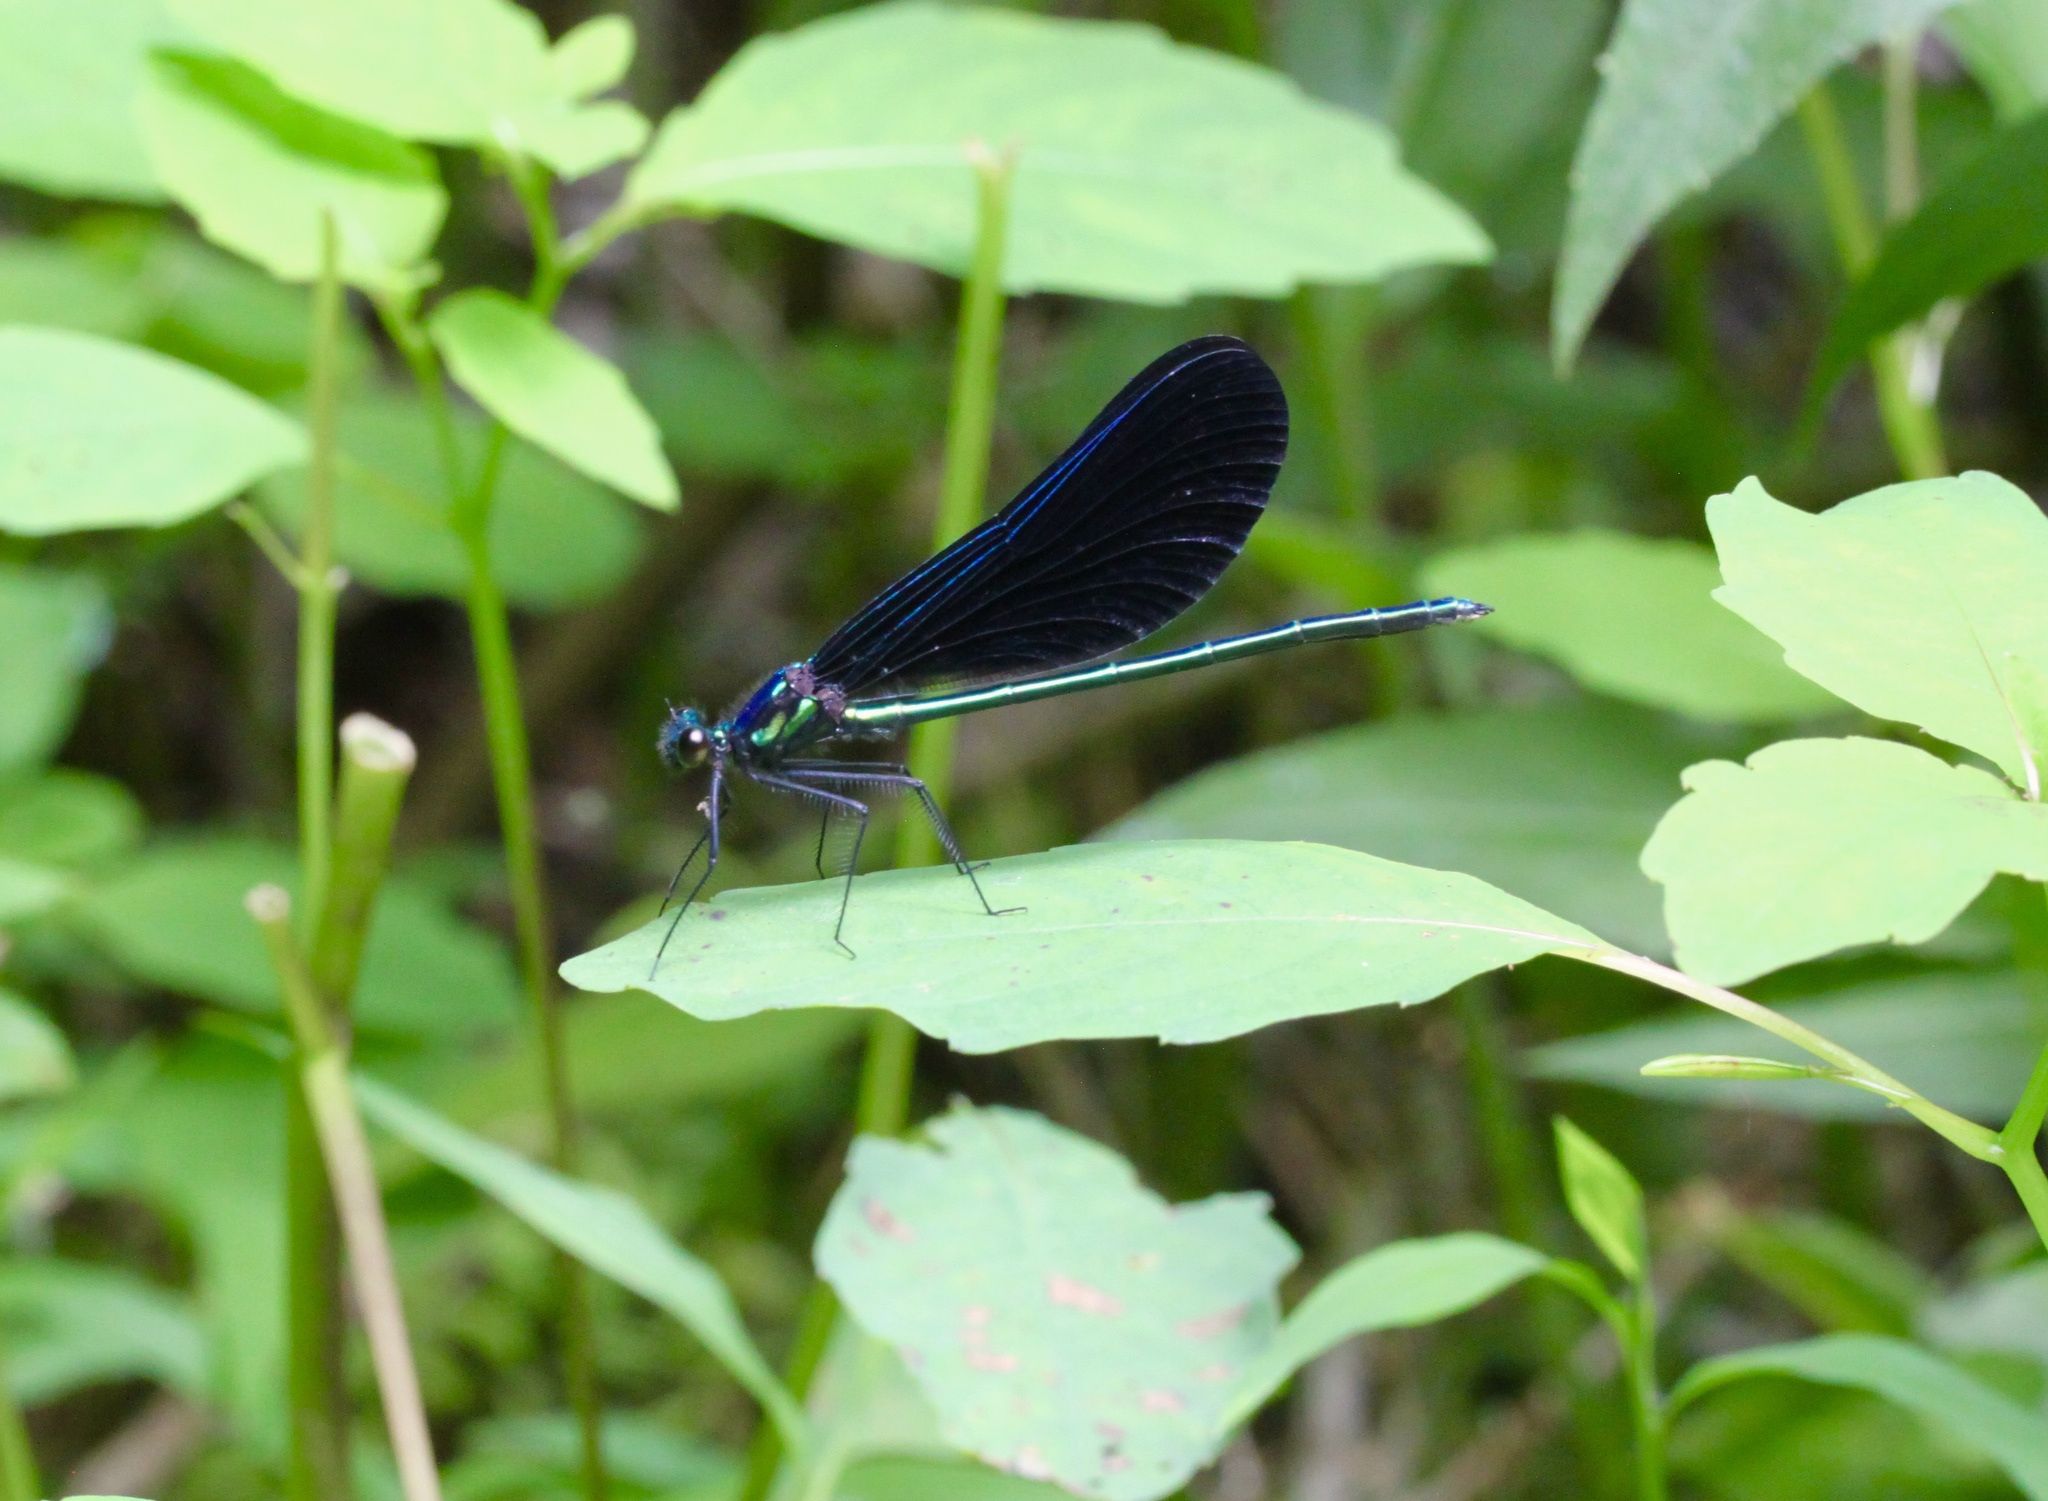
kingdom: Animalia
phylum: Arthropoda
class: Insecta
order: Odonata
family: Calopterygidae
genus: Calopteryx
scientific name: Calopteryx maculata
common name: Ebony jewelwing
